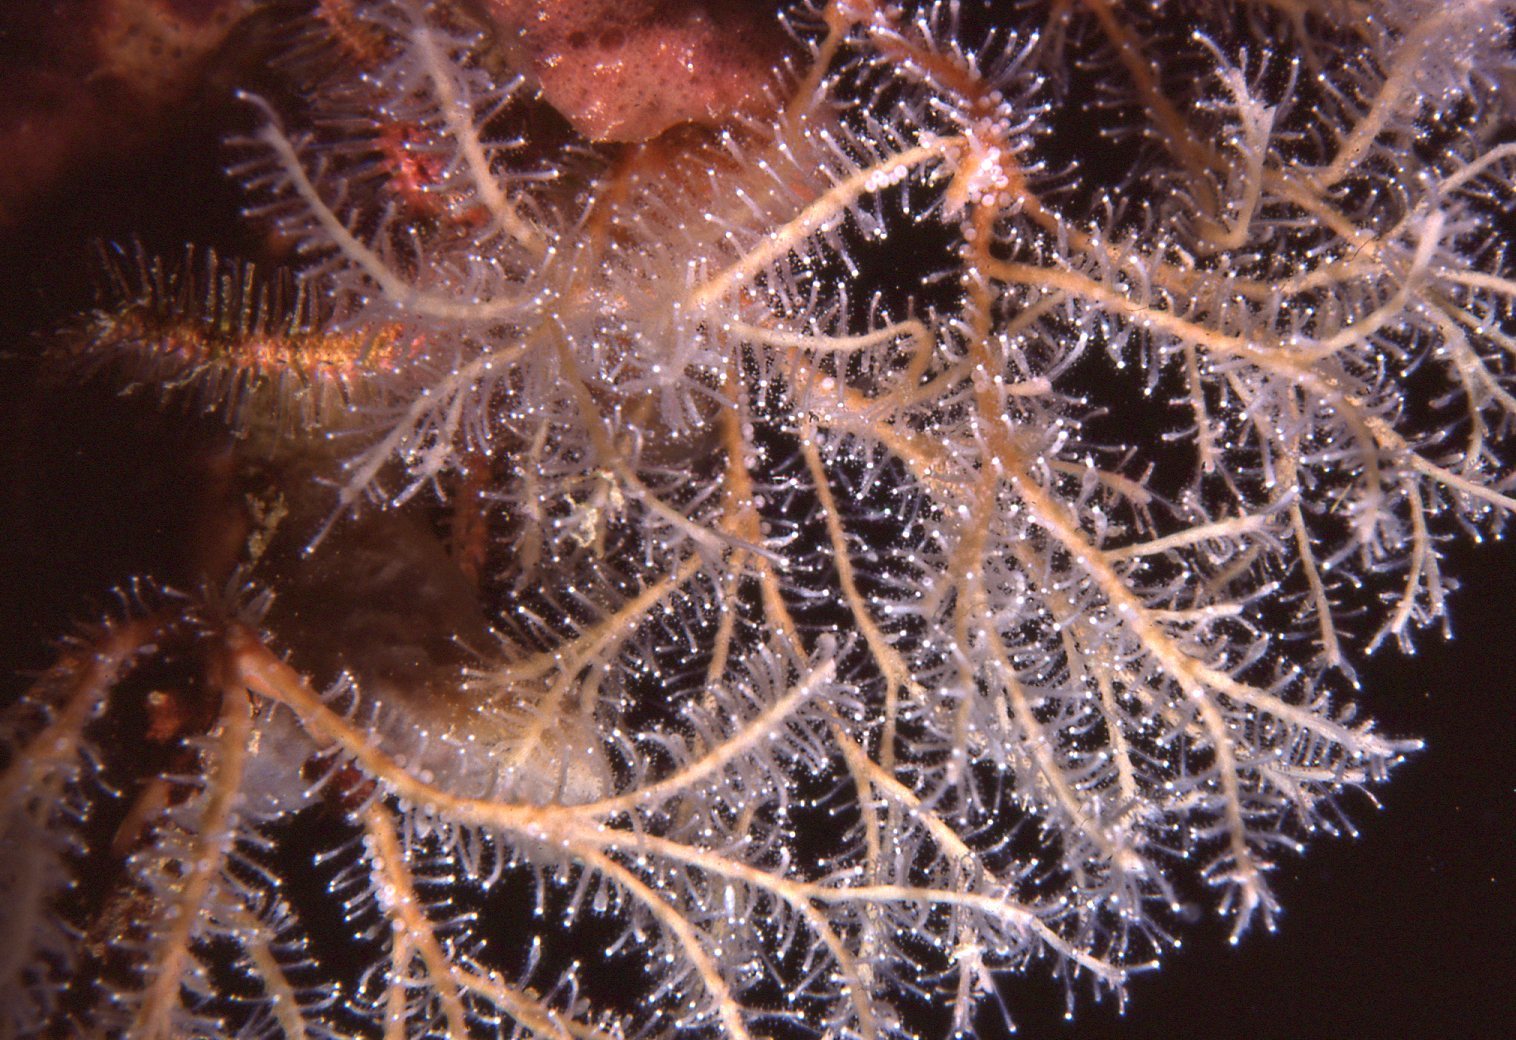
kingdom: Animalia
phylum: Cnidaria
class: Hydrozoa
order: Anthoathecata
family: Solanderiidae
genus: Solanderia
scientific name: Solanderia fusca
